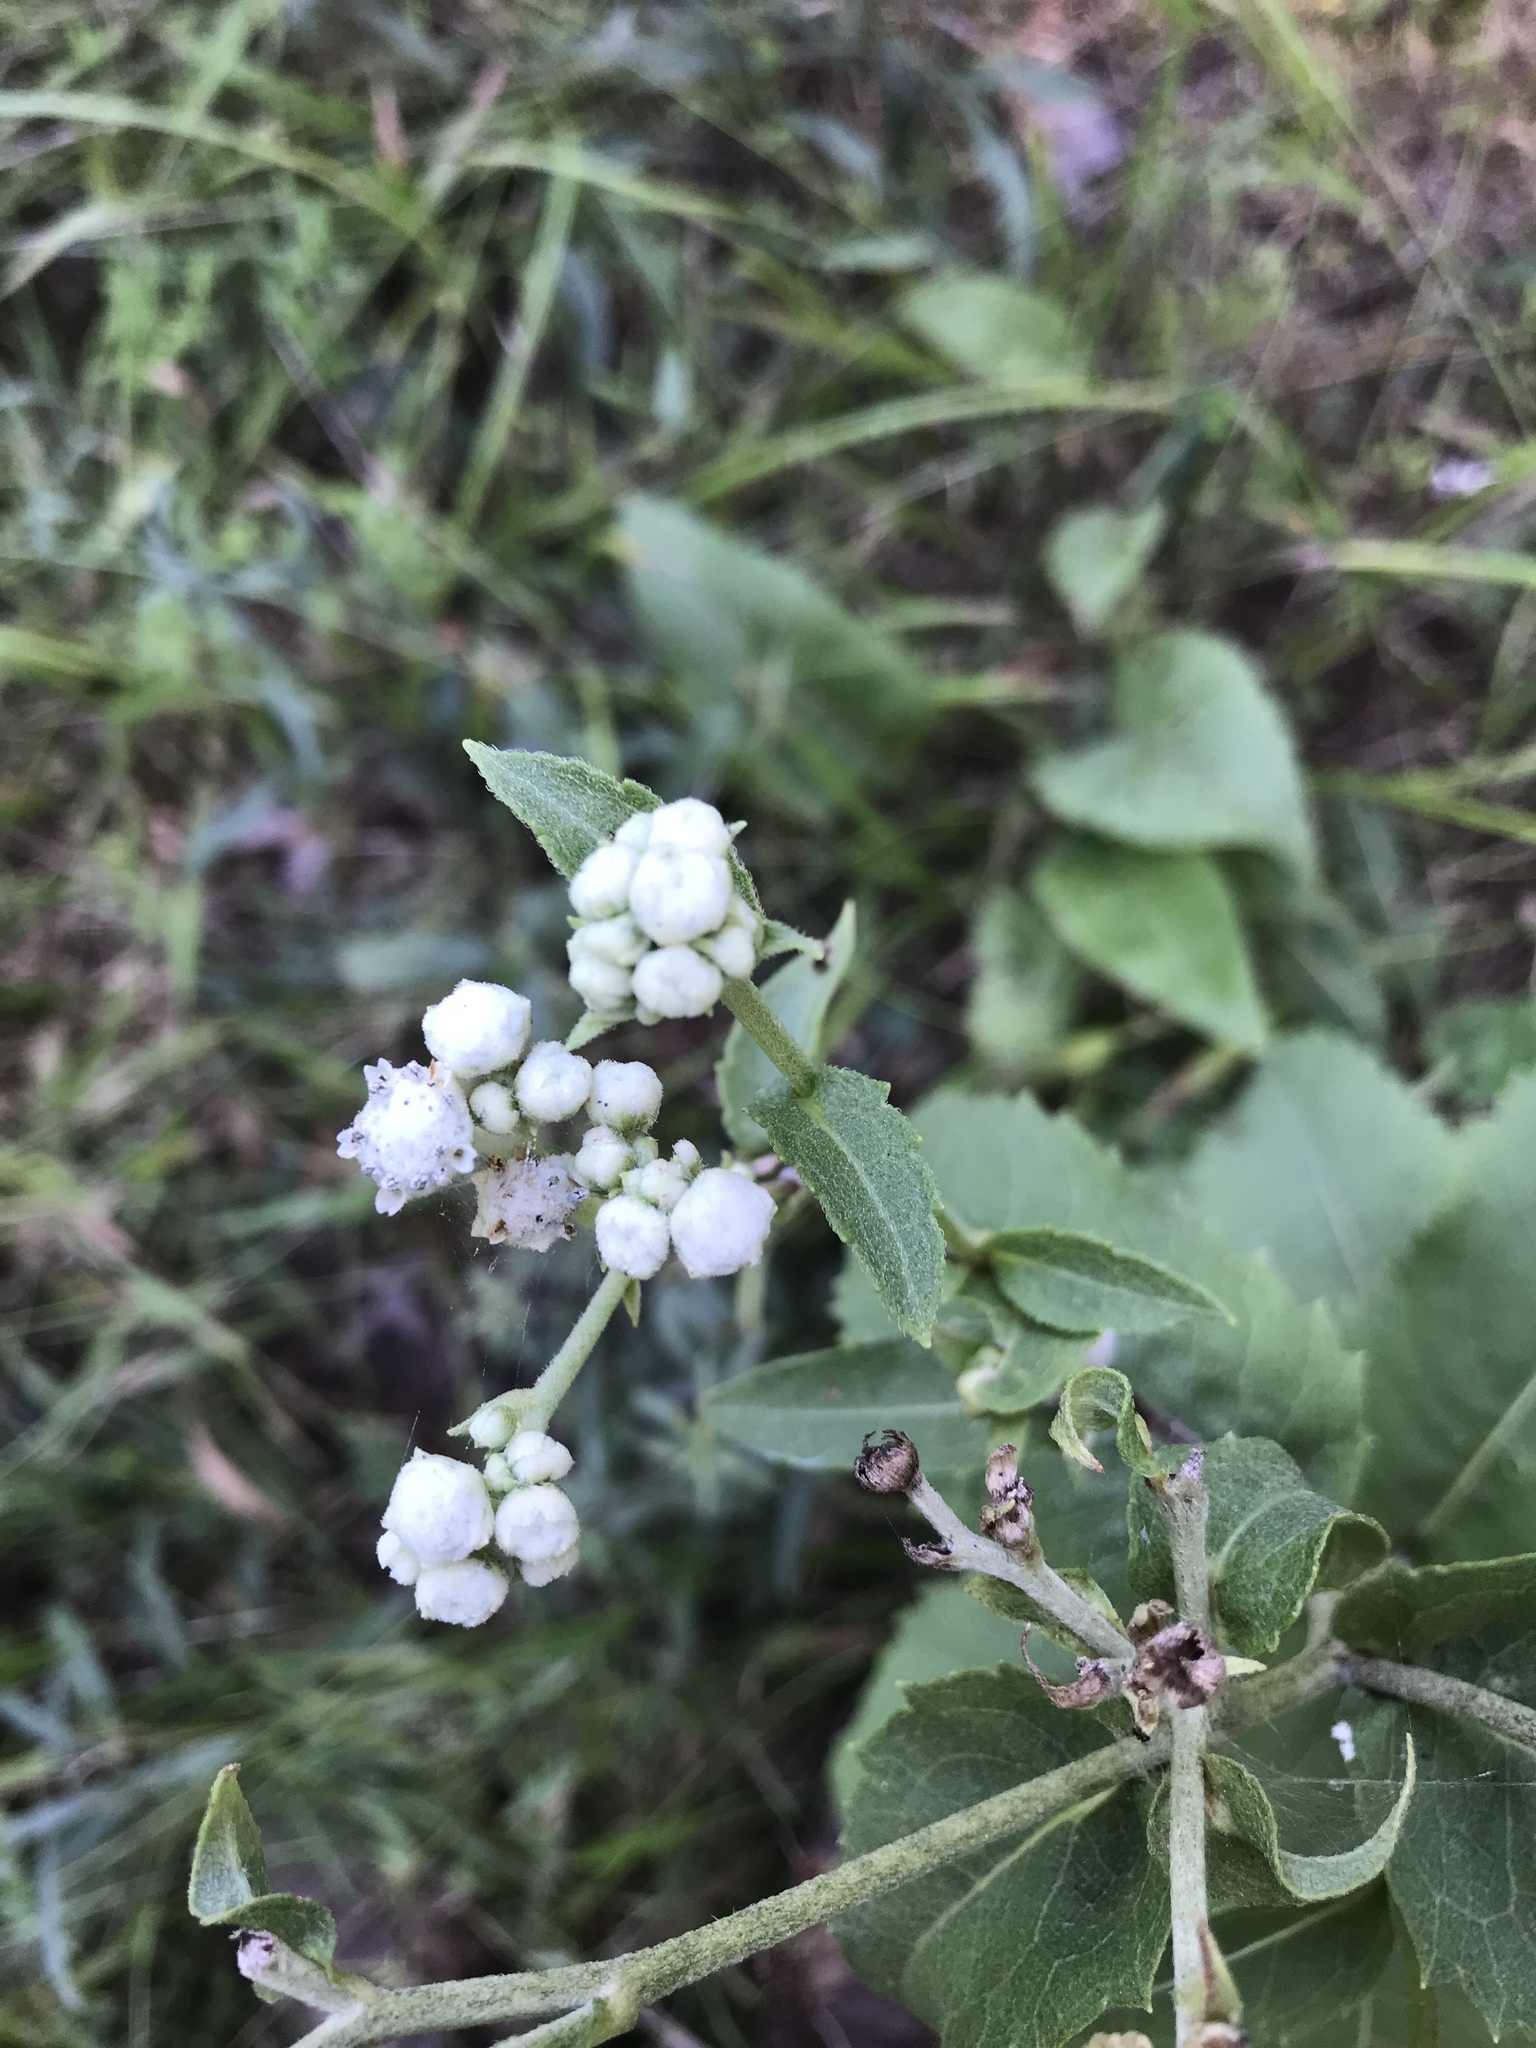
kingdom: Plantae
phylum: Tracheophyta
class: Magnoliopsida
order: Asterales
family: Asteraceae
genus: Parthenium
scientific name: Parthenium integrifolium
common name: American feverfew
